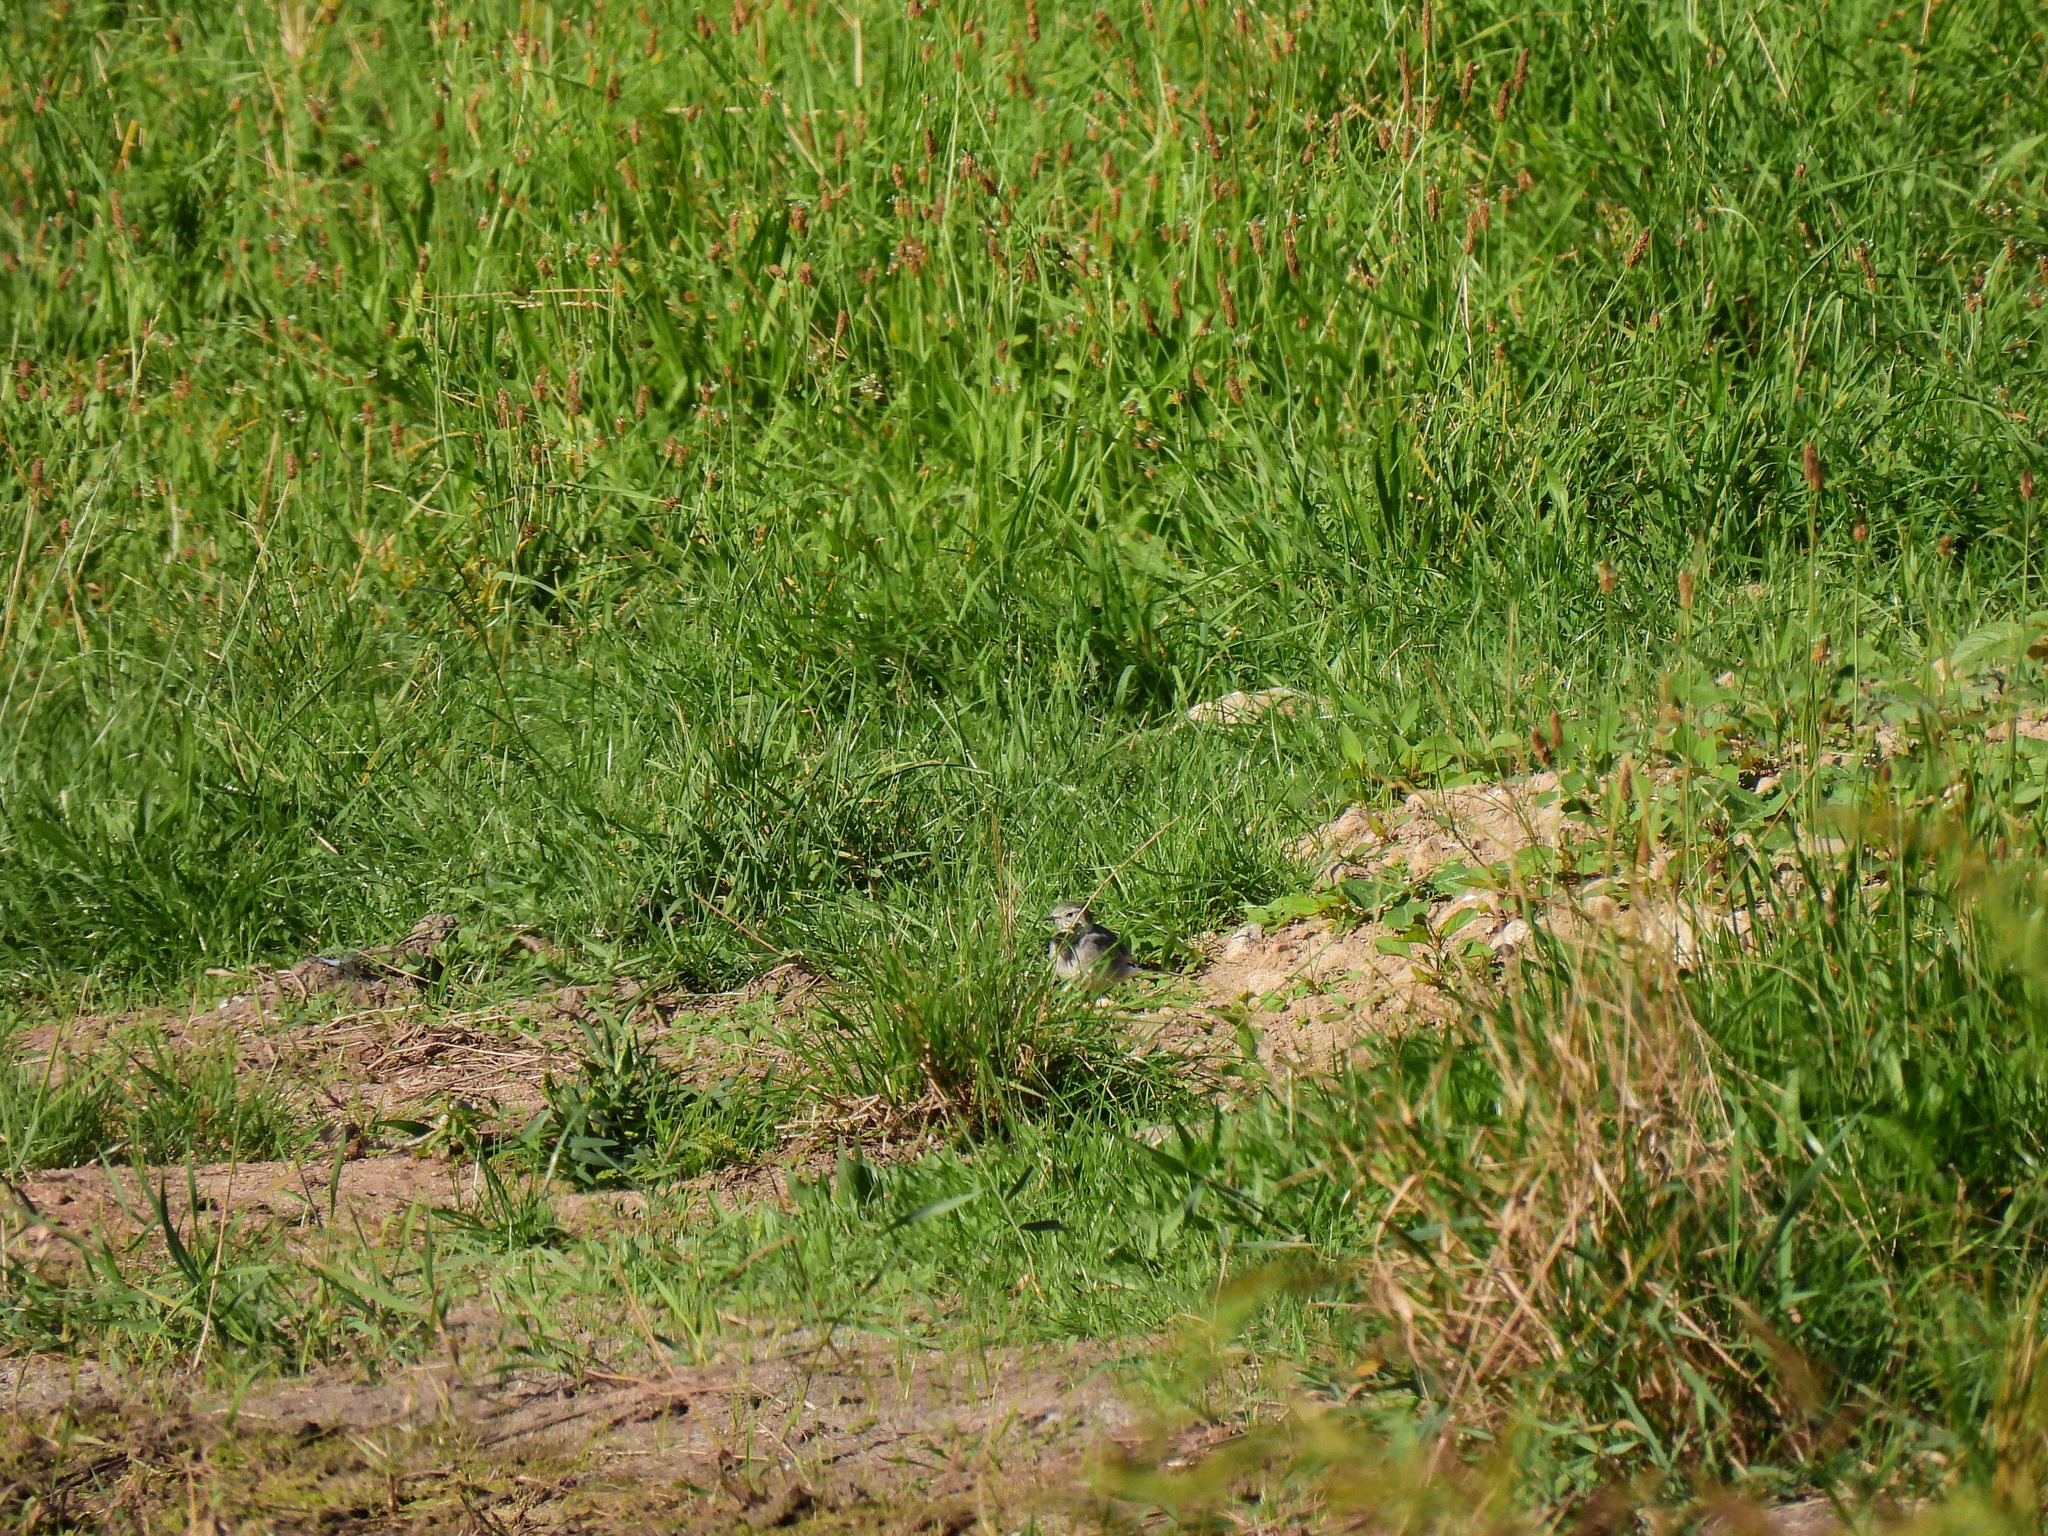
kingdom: Animalia
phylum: Chordata
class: Aves
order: Passeriformes
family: Motacillidae
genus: Motacilla
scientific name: Motacilla alba
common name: White wagtail
